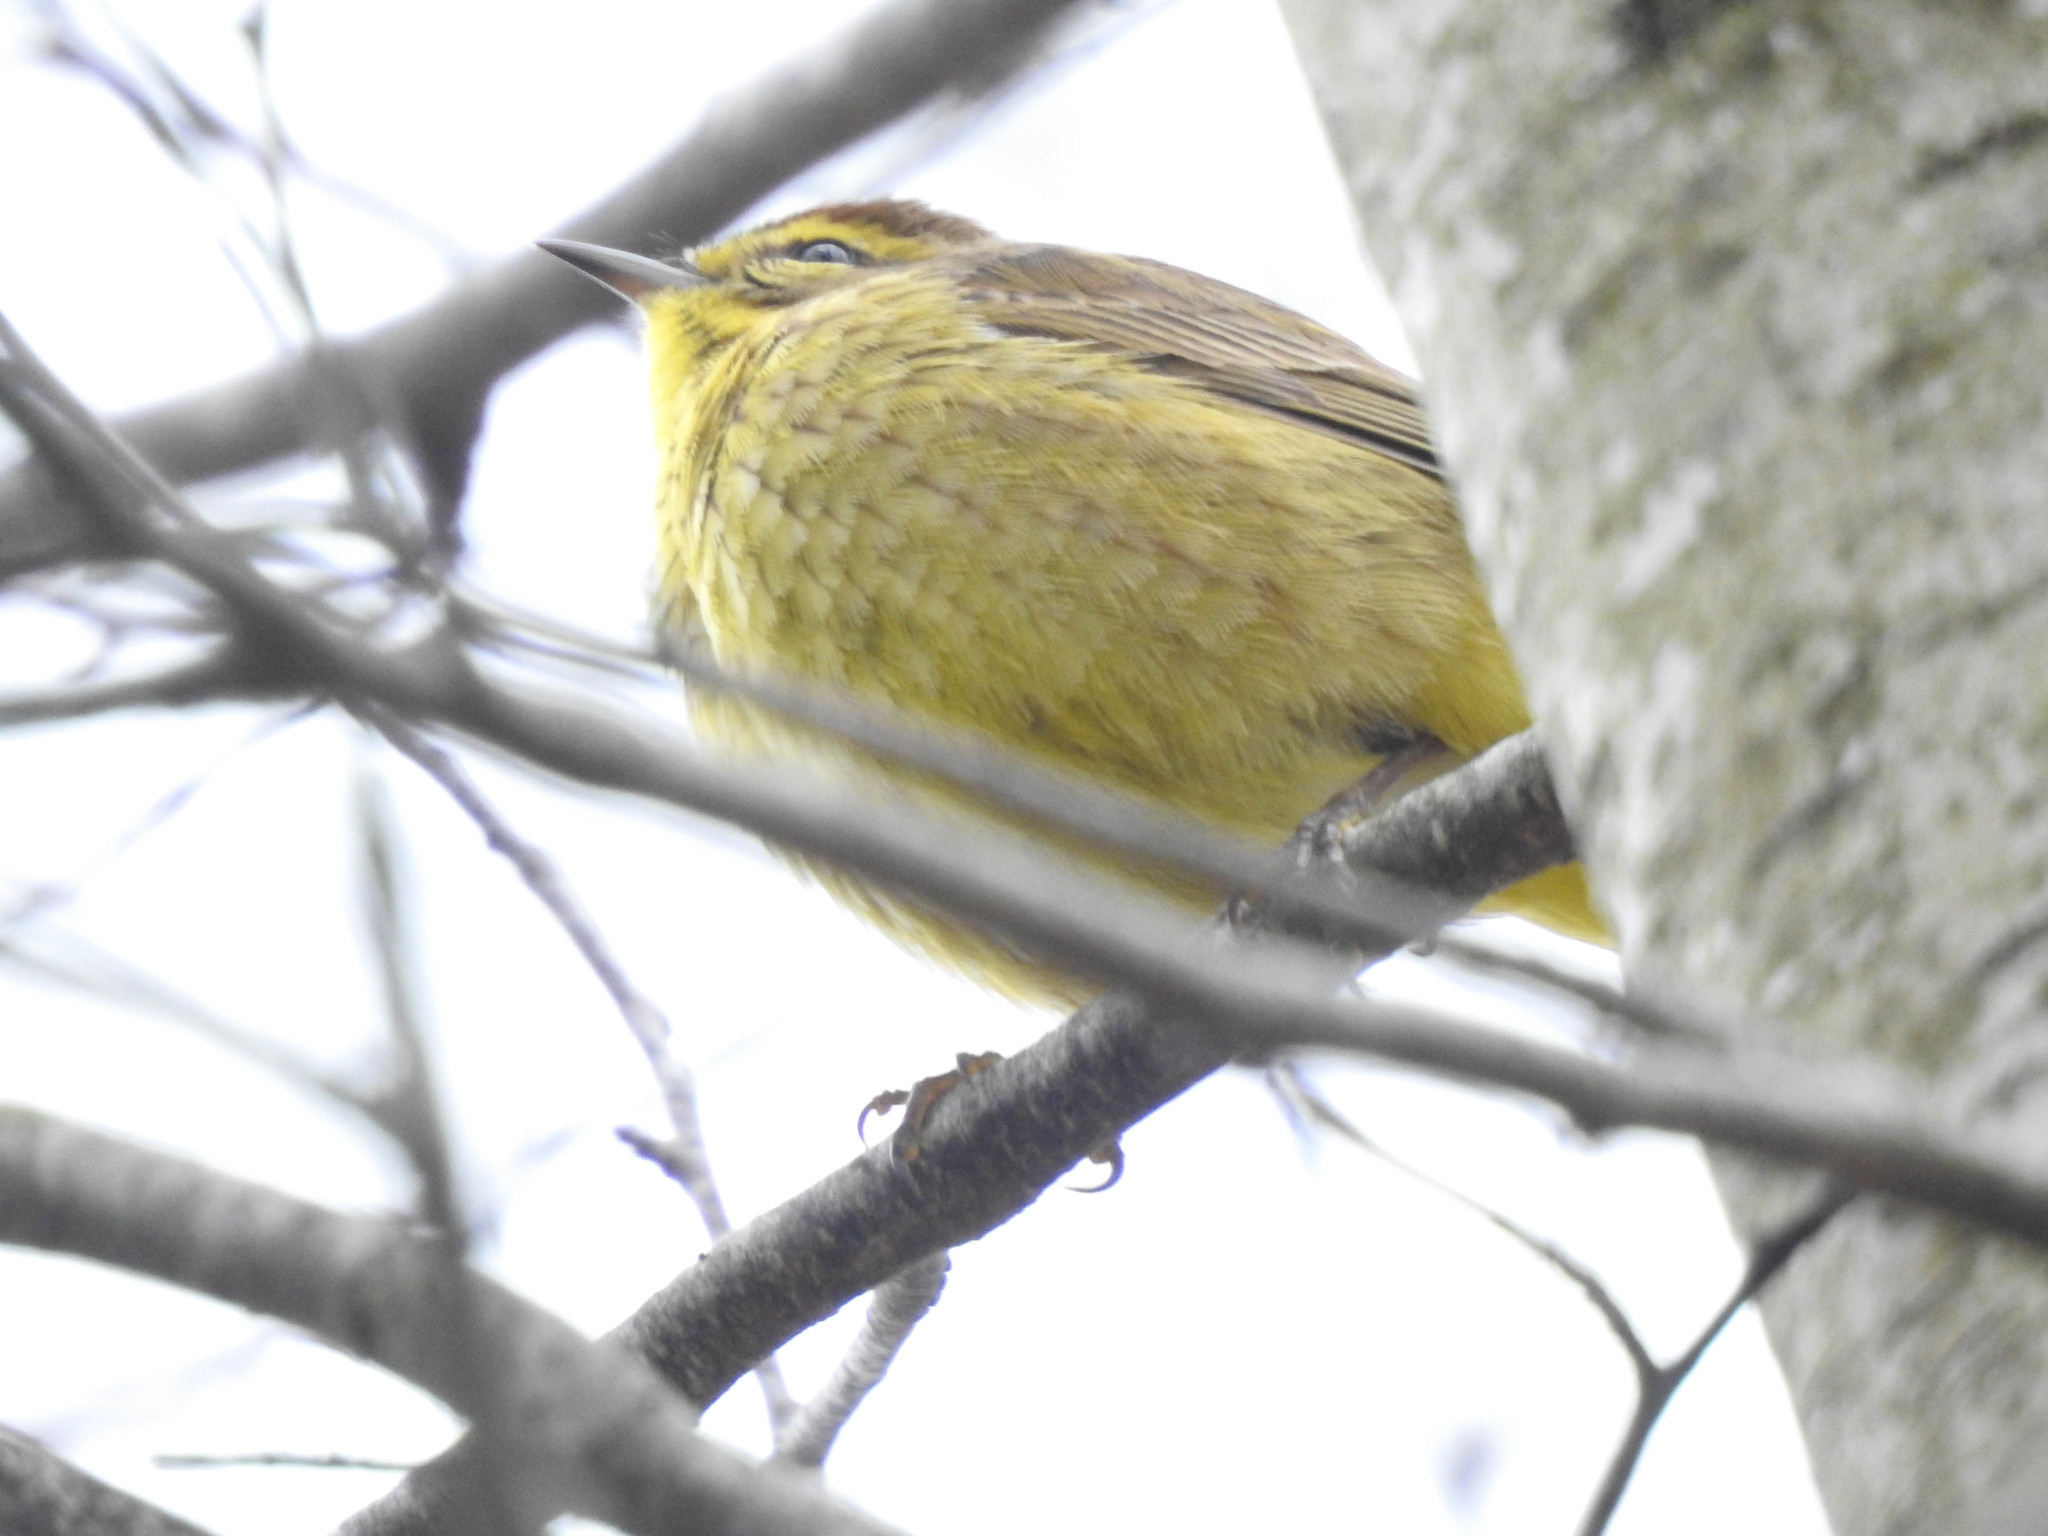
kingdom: Animalia
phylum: Chordata
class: Aves
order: Passeriformes
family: Parulidae
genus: Setophaga
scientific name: Setophaga palmarum
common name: Palm warbler
